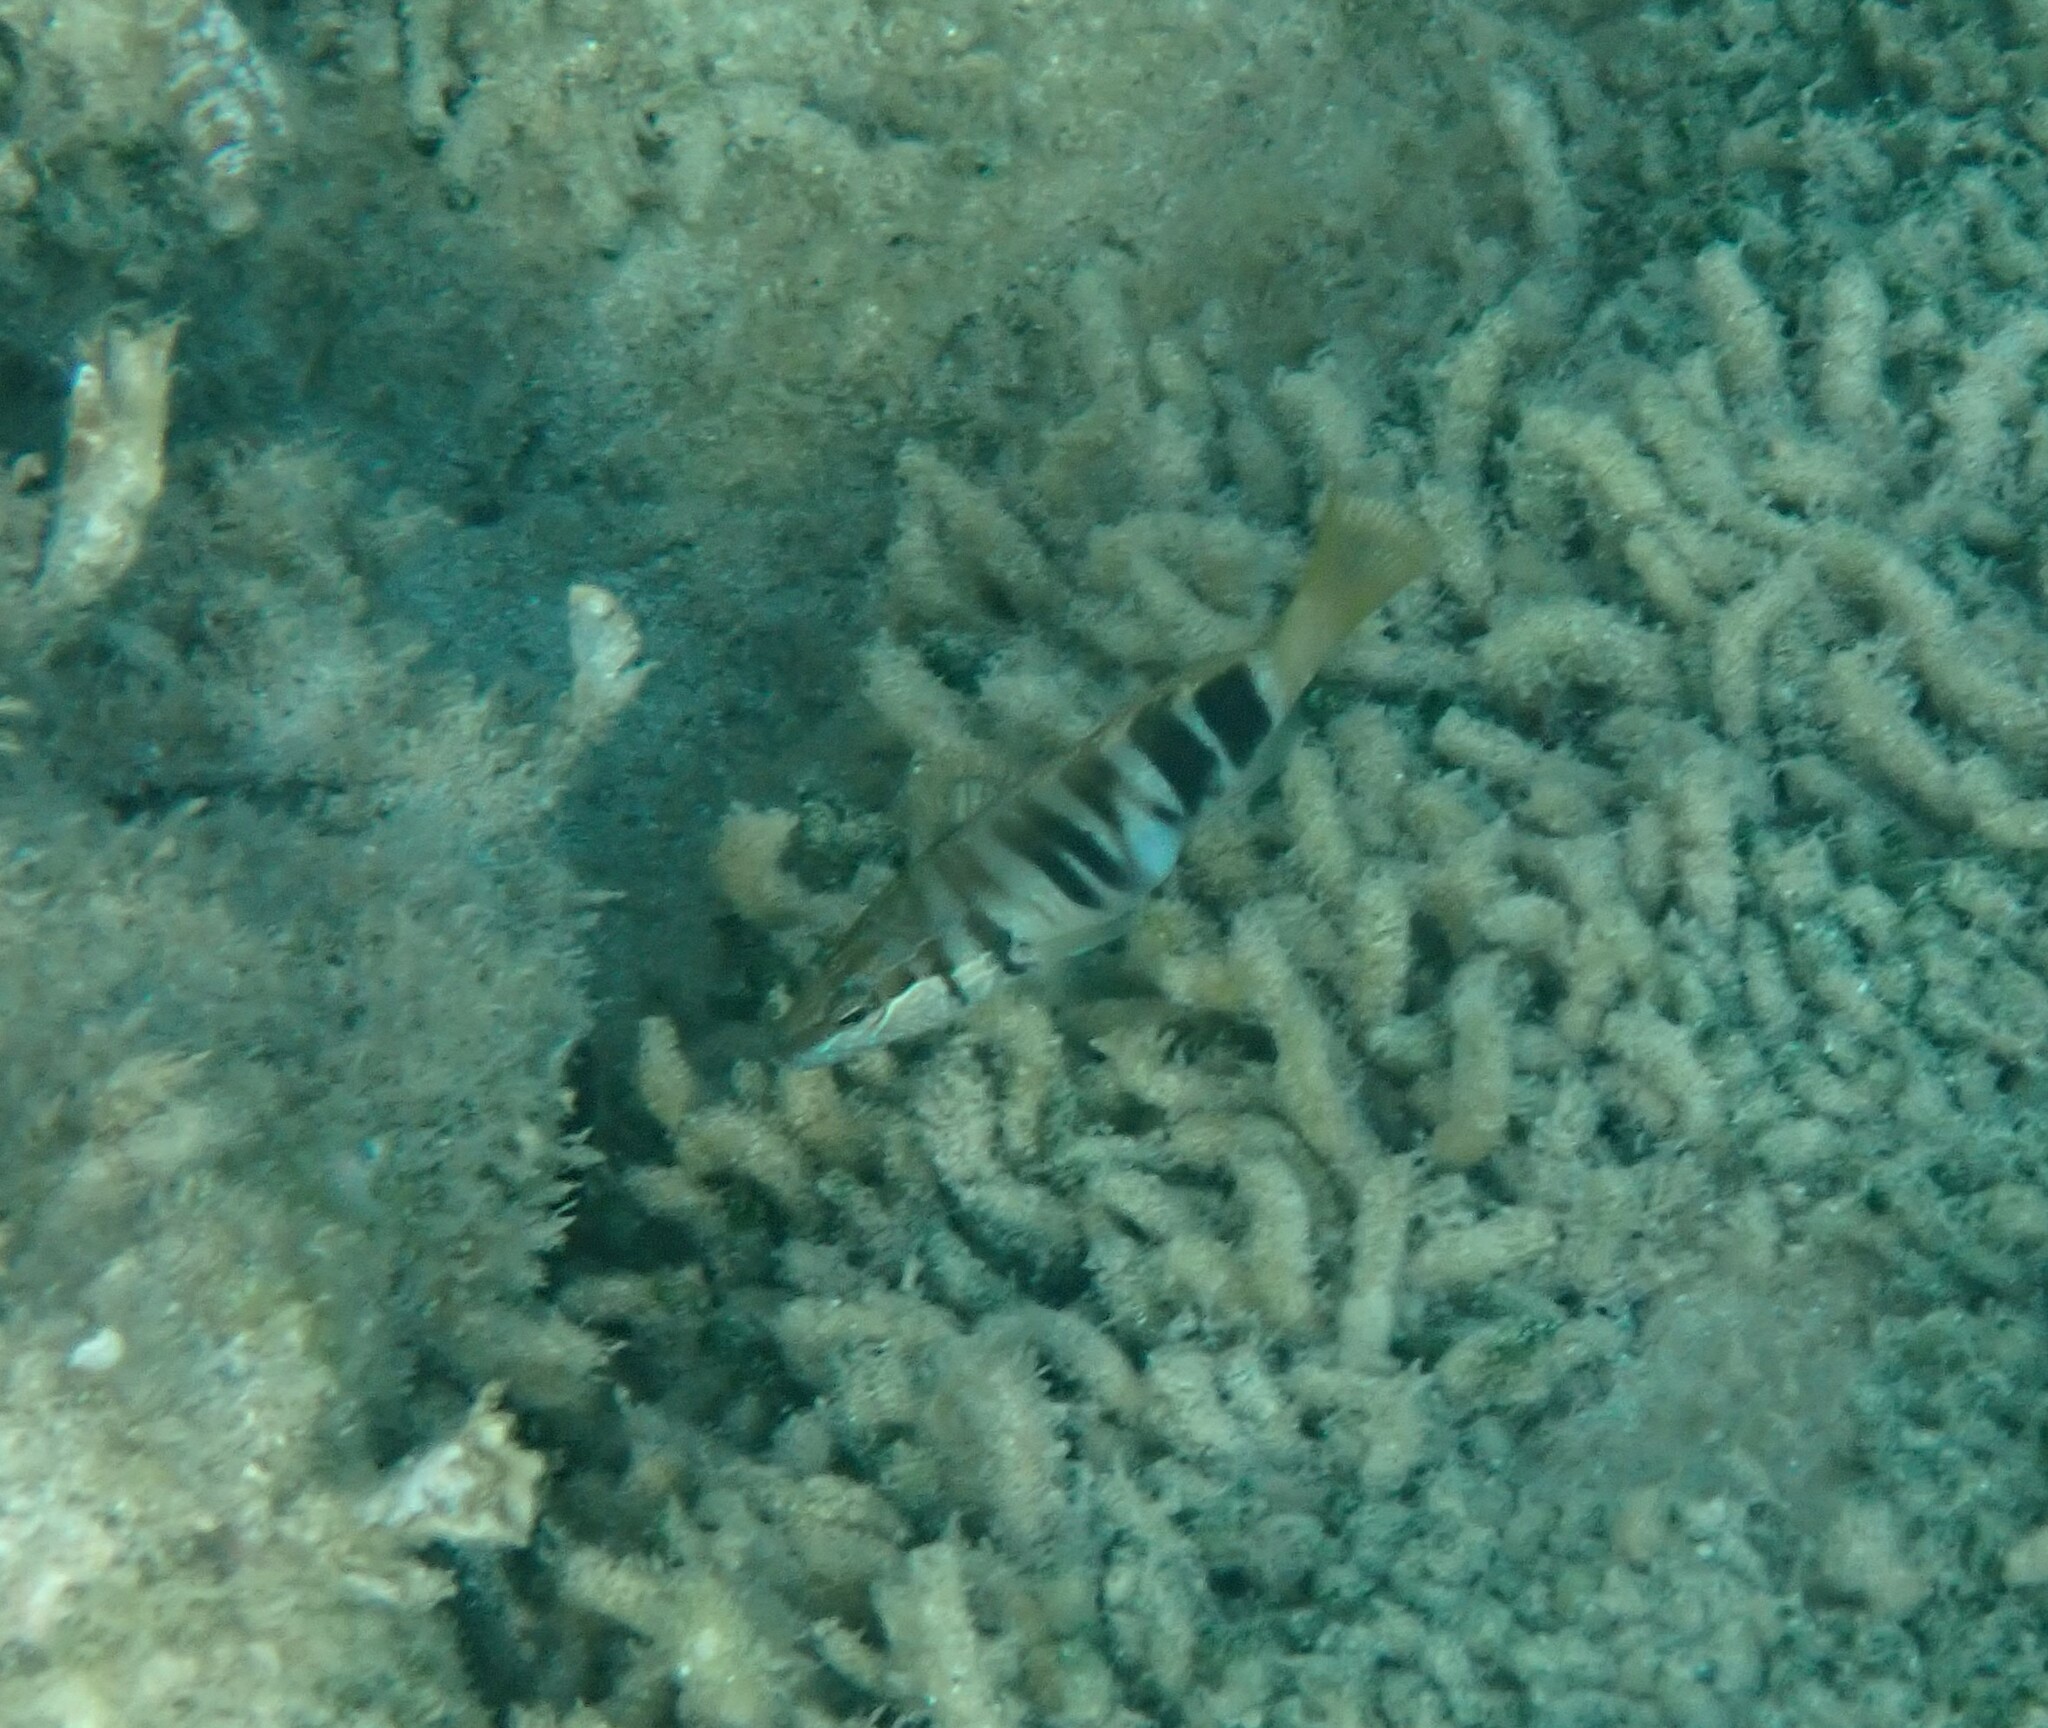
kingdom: Animalia
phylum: Chordata
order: Perciformes
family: Serranidae
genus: Serranus
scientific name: Serranus scriba
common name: Painted comber
